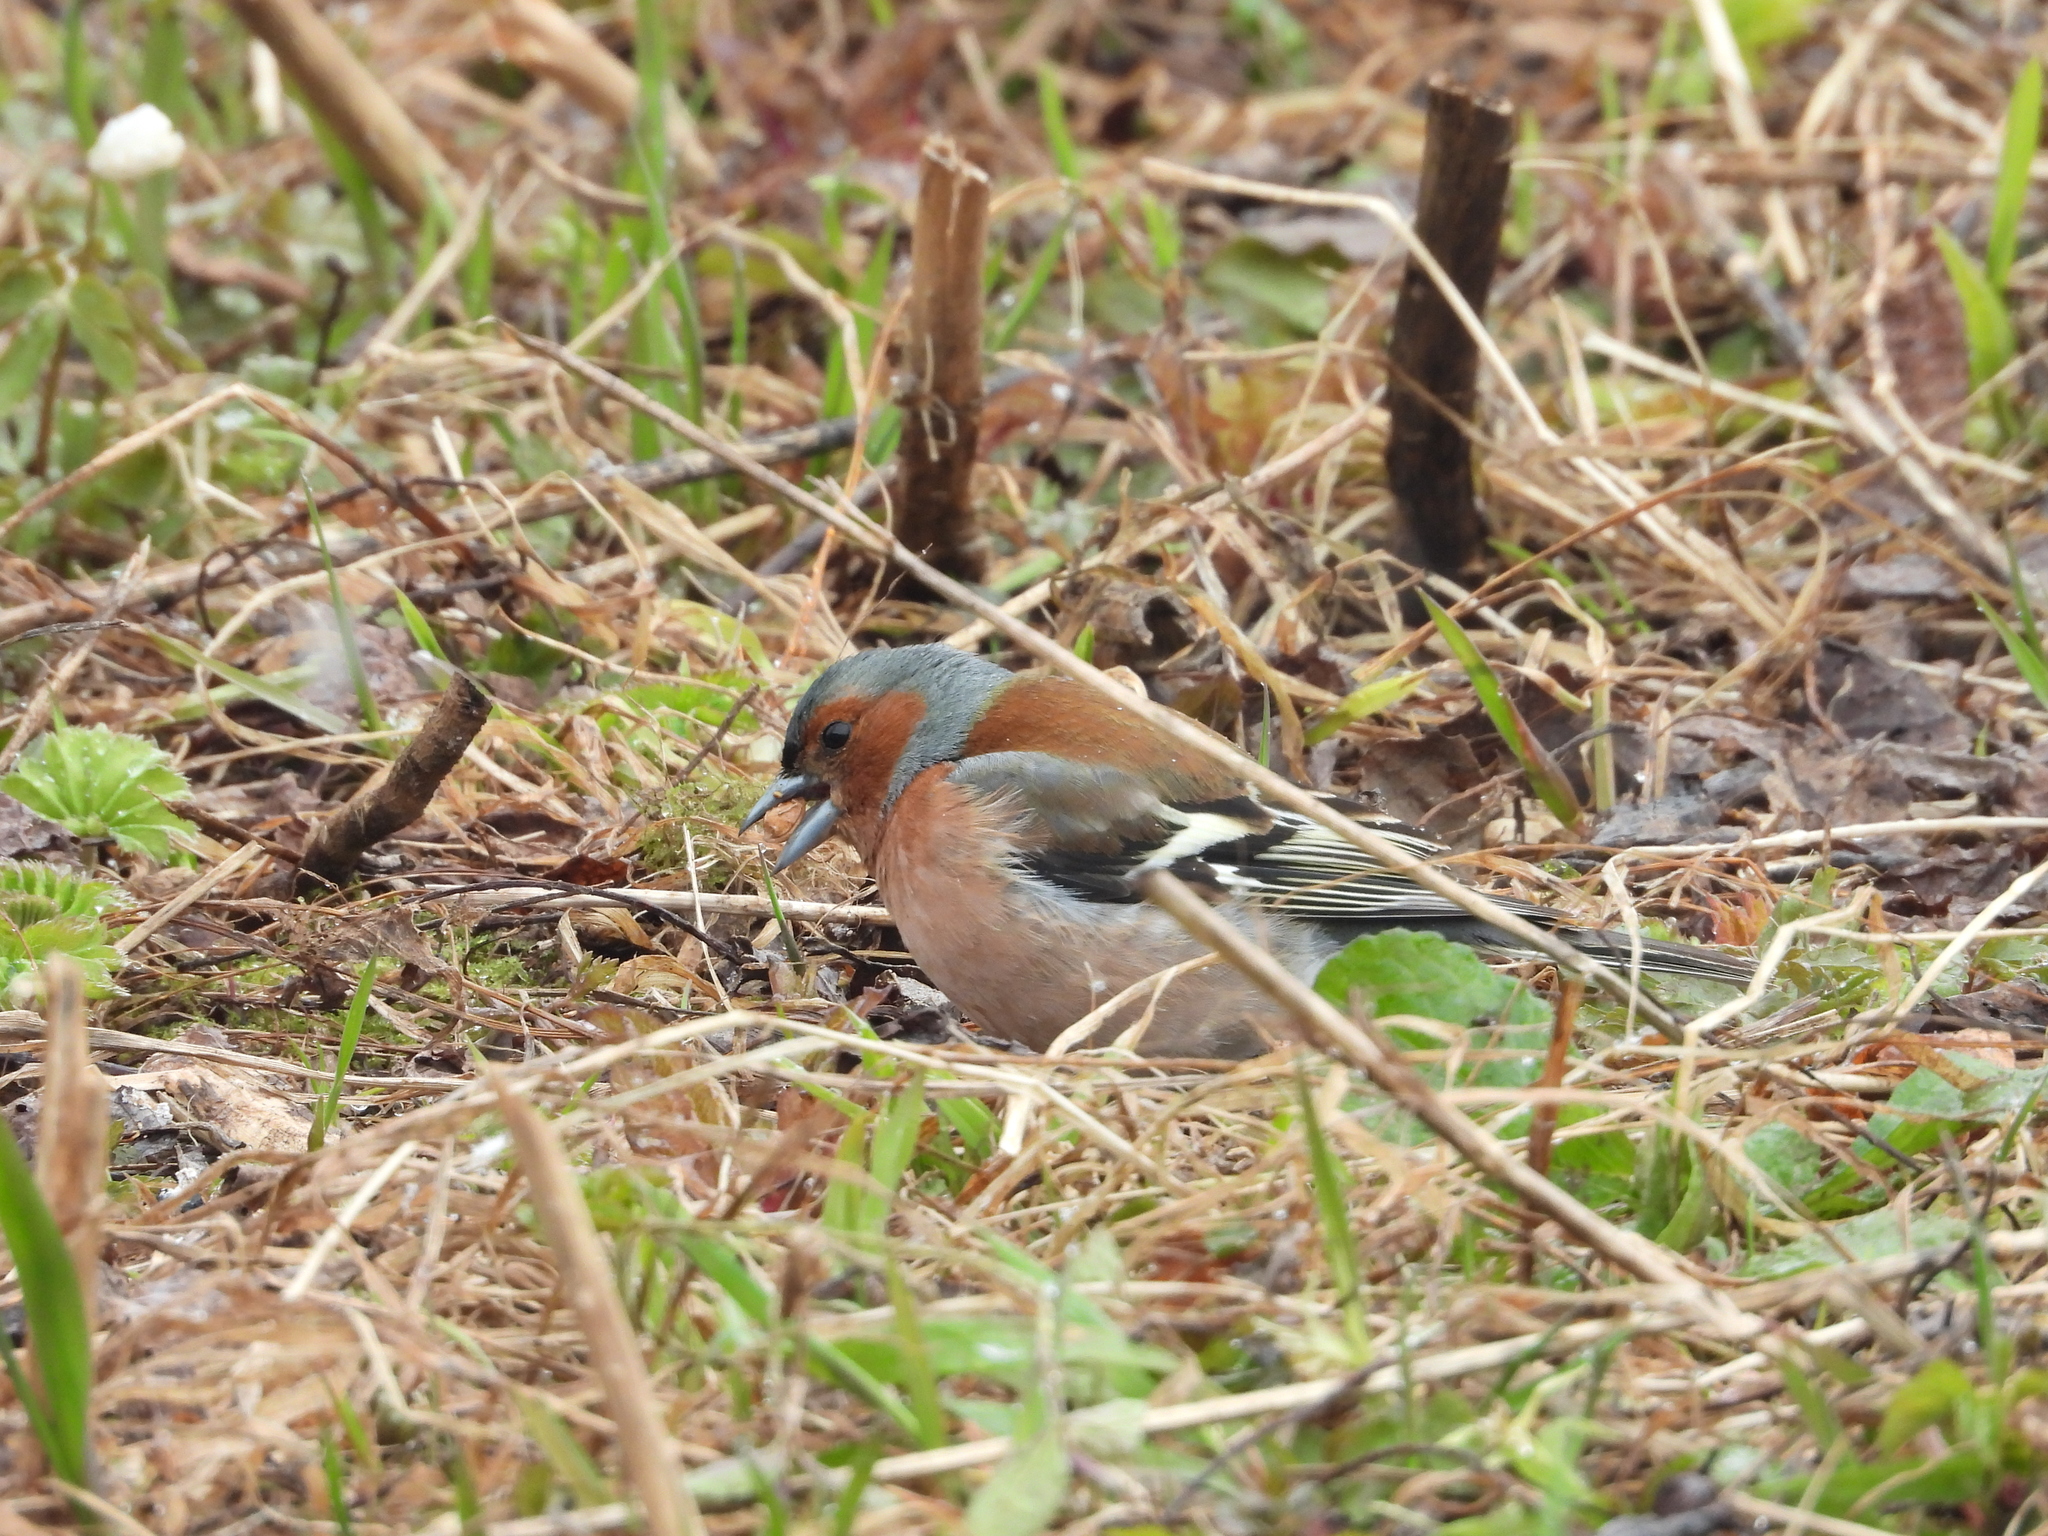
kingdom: Animalia
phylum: Chordata
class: Aves
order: Passeriformes
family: Fringillidae
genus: Fringilla
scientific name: Fringilla coelebs
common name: Common chaffinch
